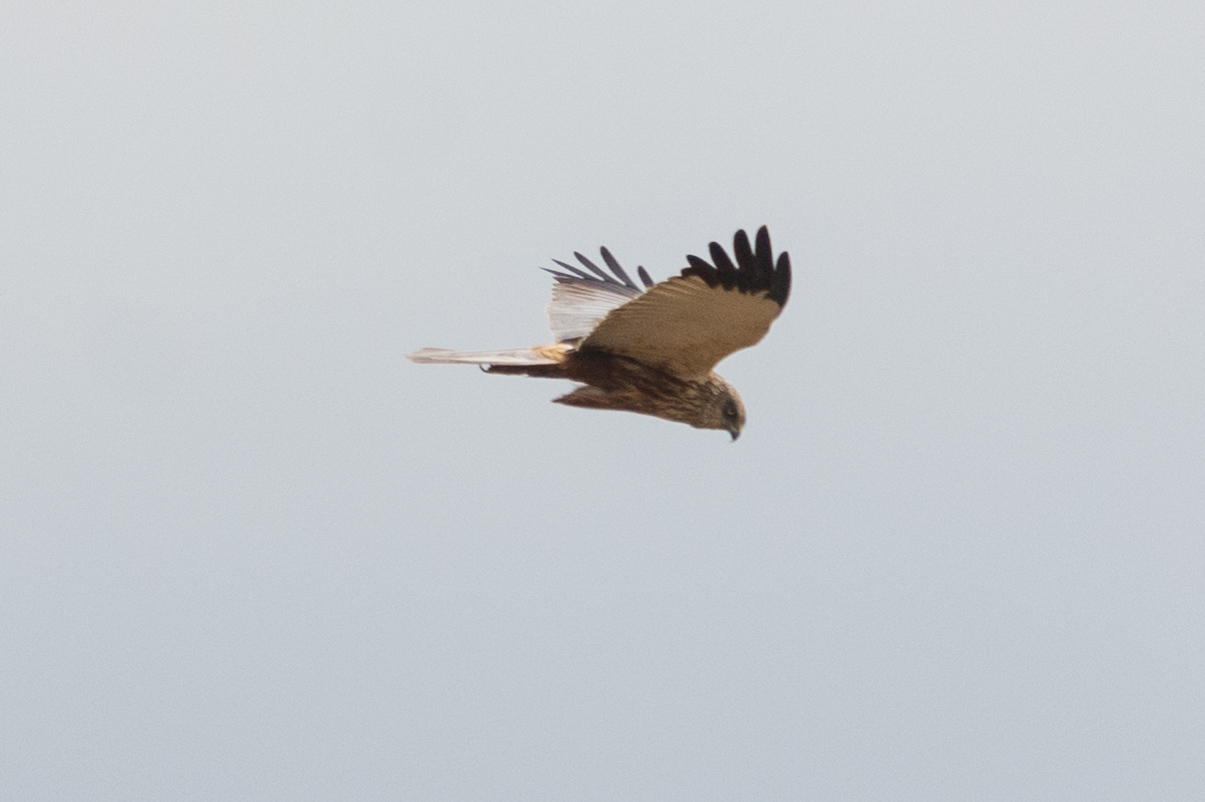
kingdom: Animalia
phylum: Chordata
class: Aves
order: Accipitriformes
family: Accipitridae
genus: Circus
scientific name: Circus aeruginosus
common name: Western marsh harrier
